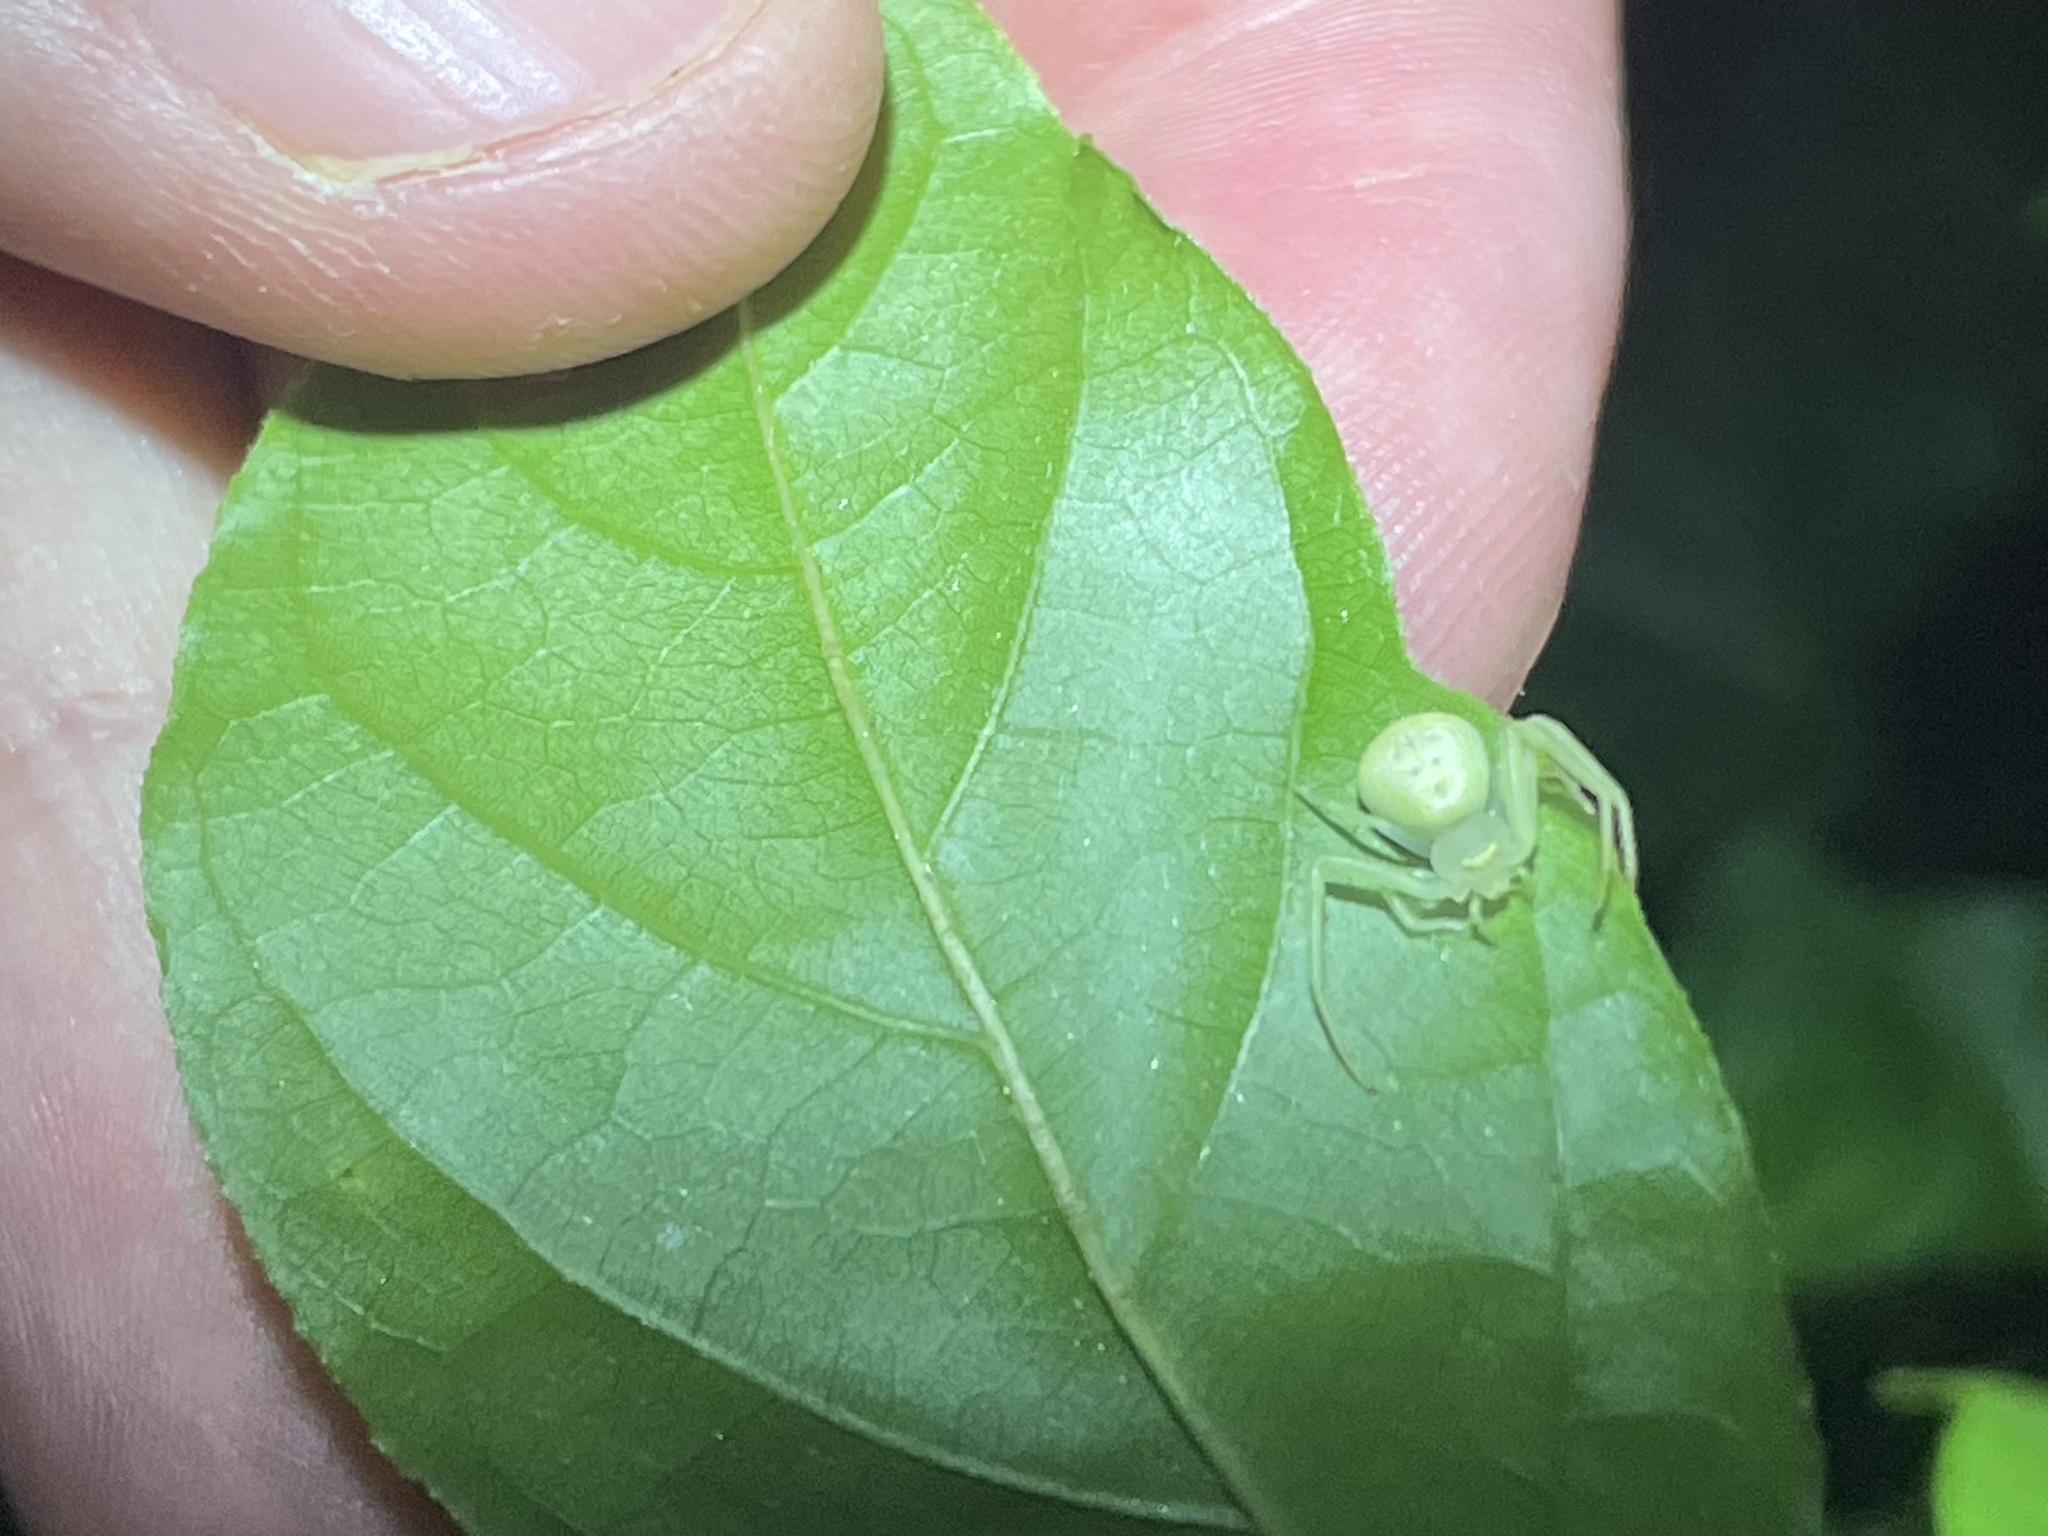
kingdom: Animalia
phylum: Arthropoda
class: Arachnida
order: Araneae
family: Thomisidae
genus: Misumessus
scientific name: Misumessus oblongus
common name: American green crab spider
